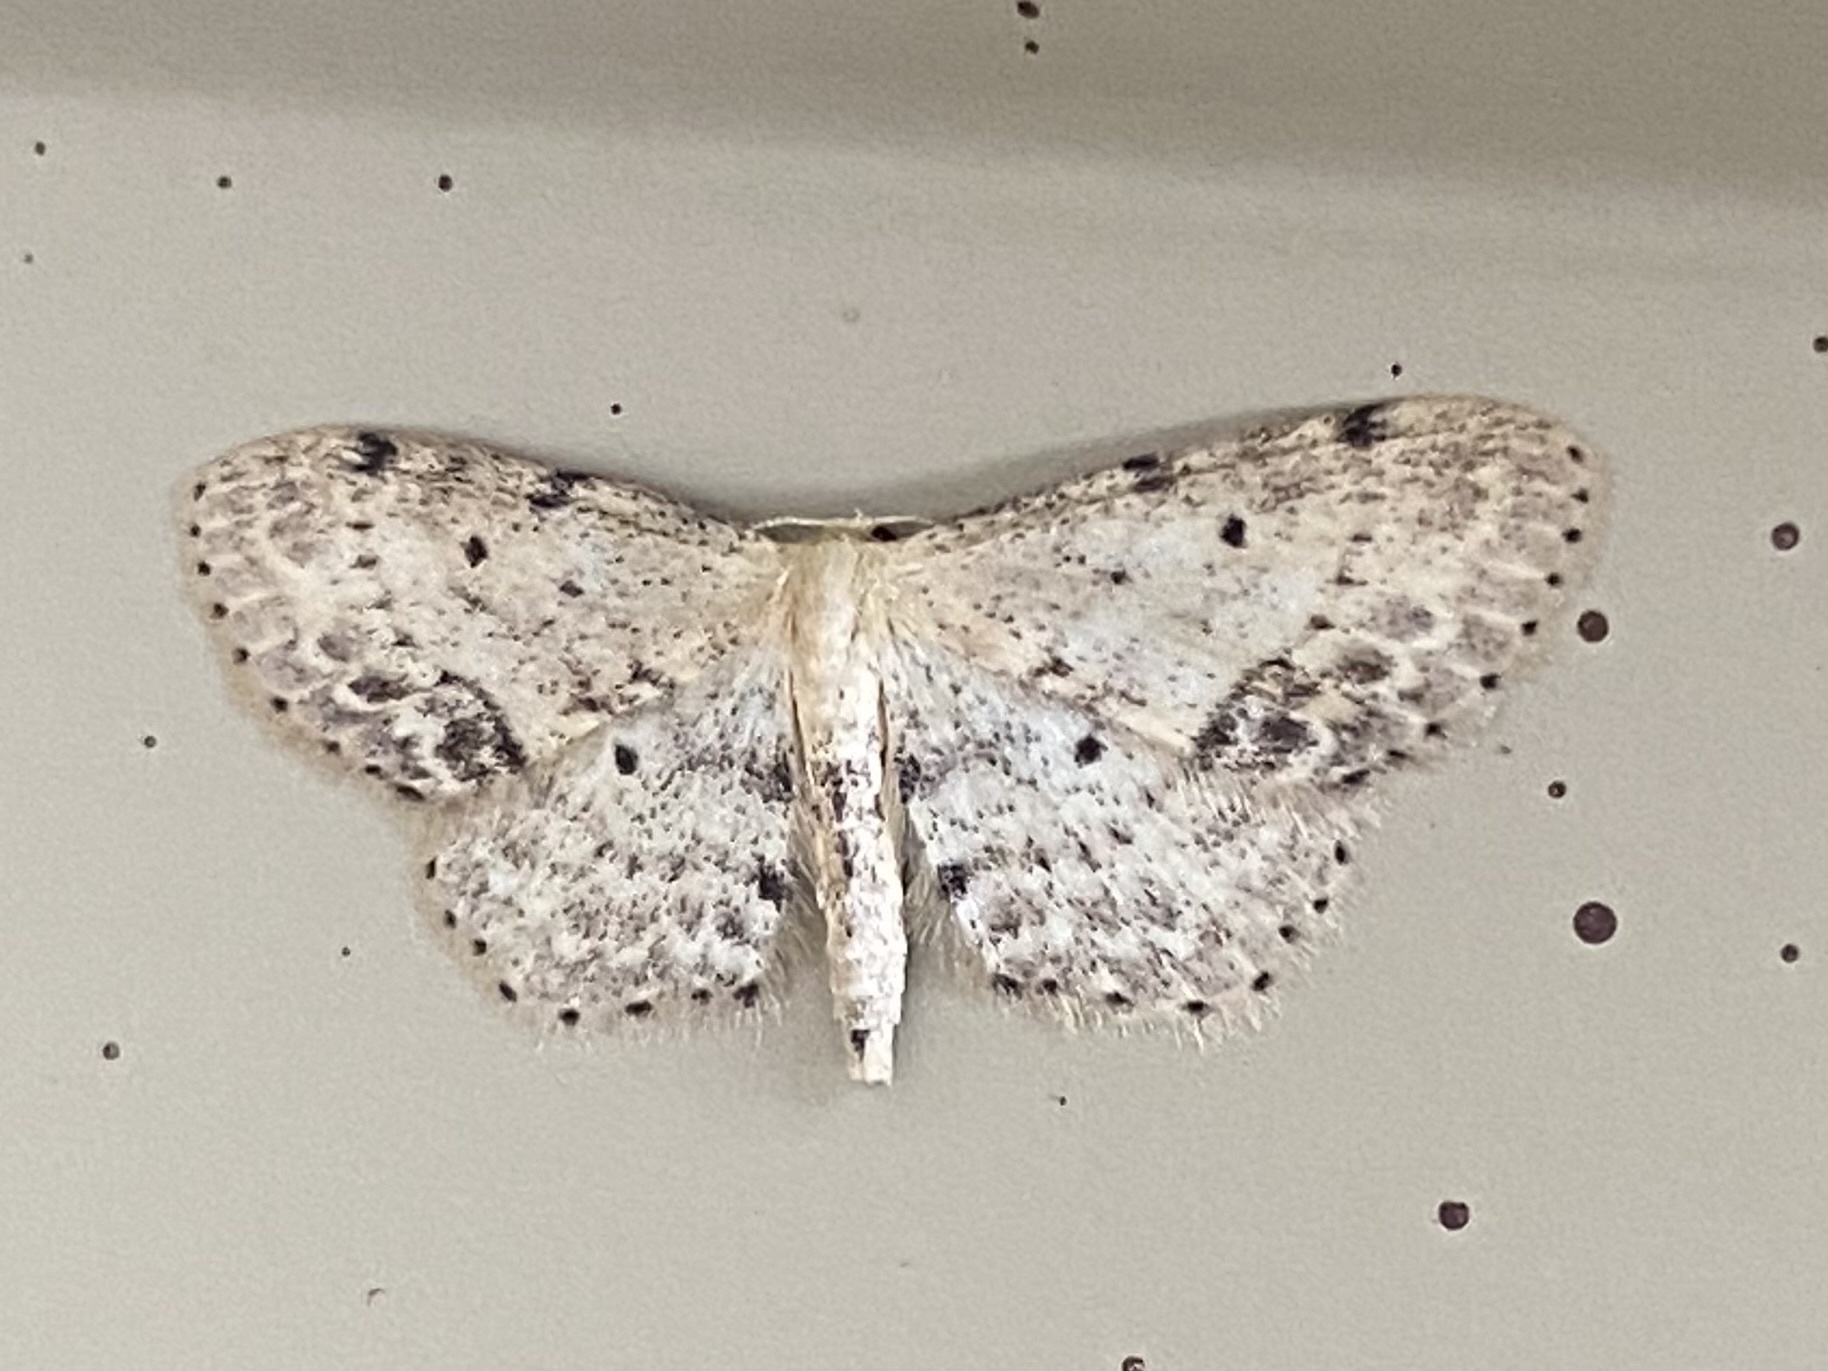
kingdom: Animalia
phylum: Arthropoda
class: Insecta
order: Lepidoptera
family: Geometridae
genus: Idaea
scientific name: Idaea dimidiata
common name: Single-dotted wave
